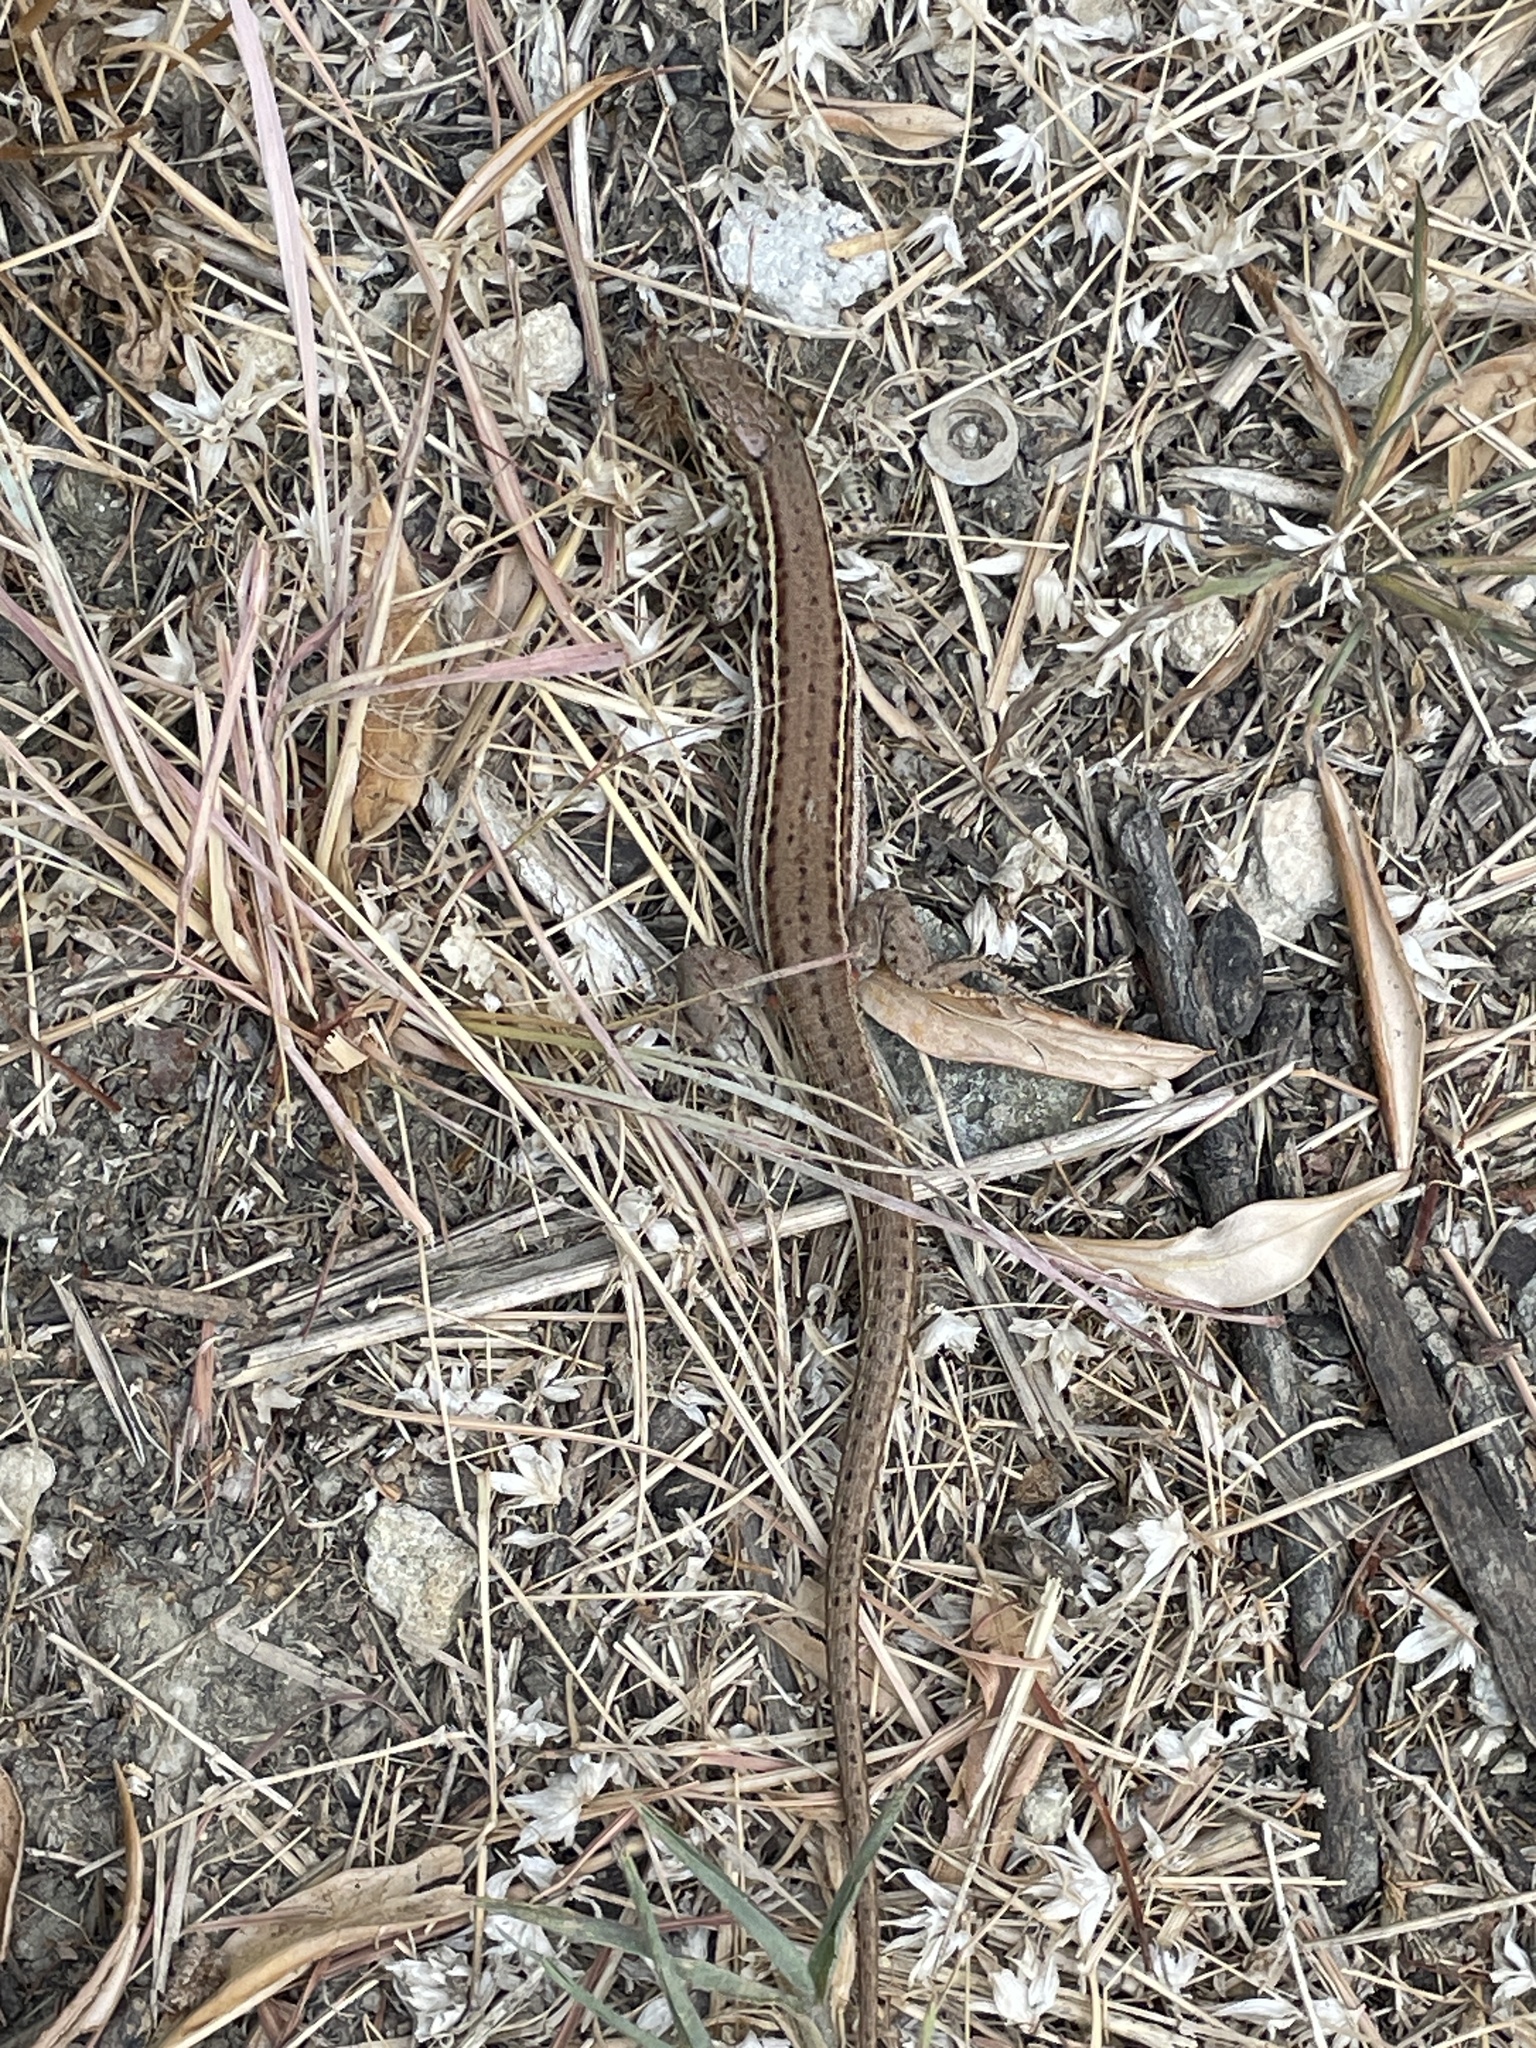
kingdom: Animalia
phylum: Chordata
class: Squamata
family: Lacertidae
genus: Podarcis
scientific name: Podarcis ionicus
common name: Ionian wall lizard
